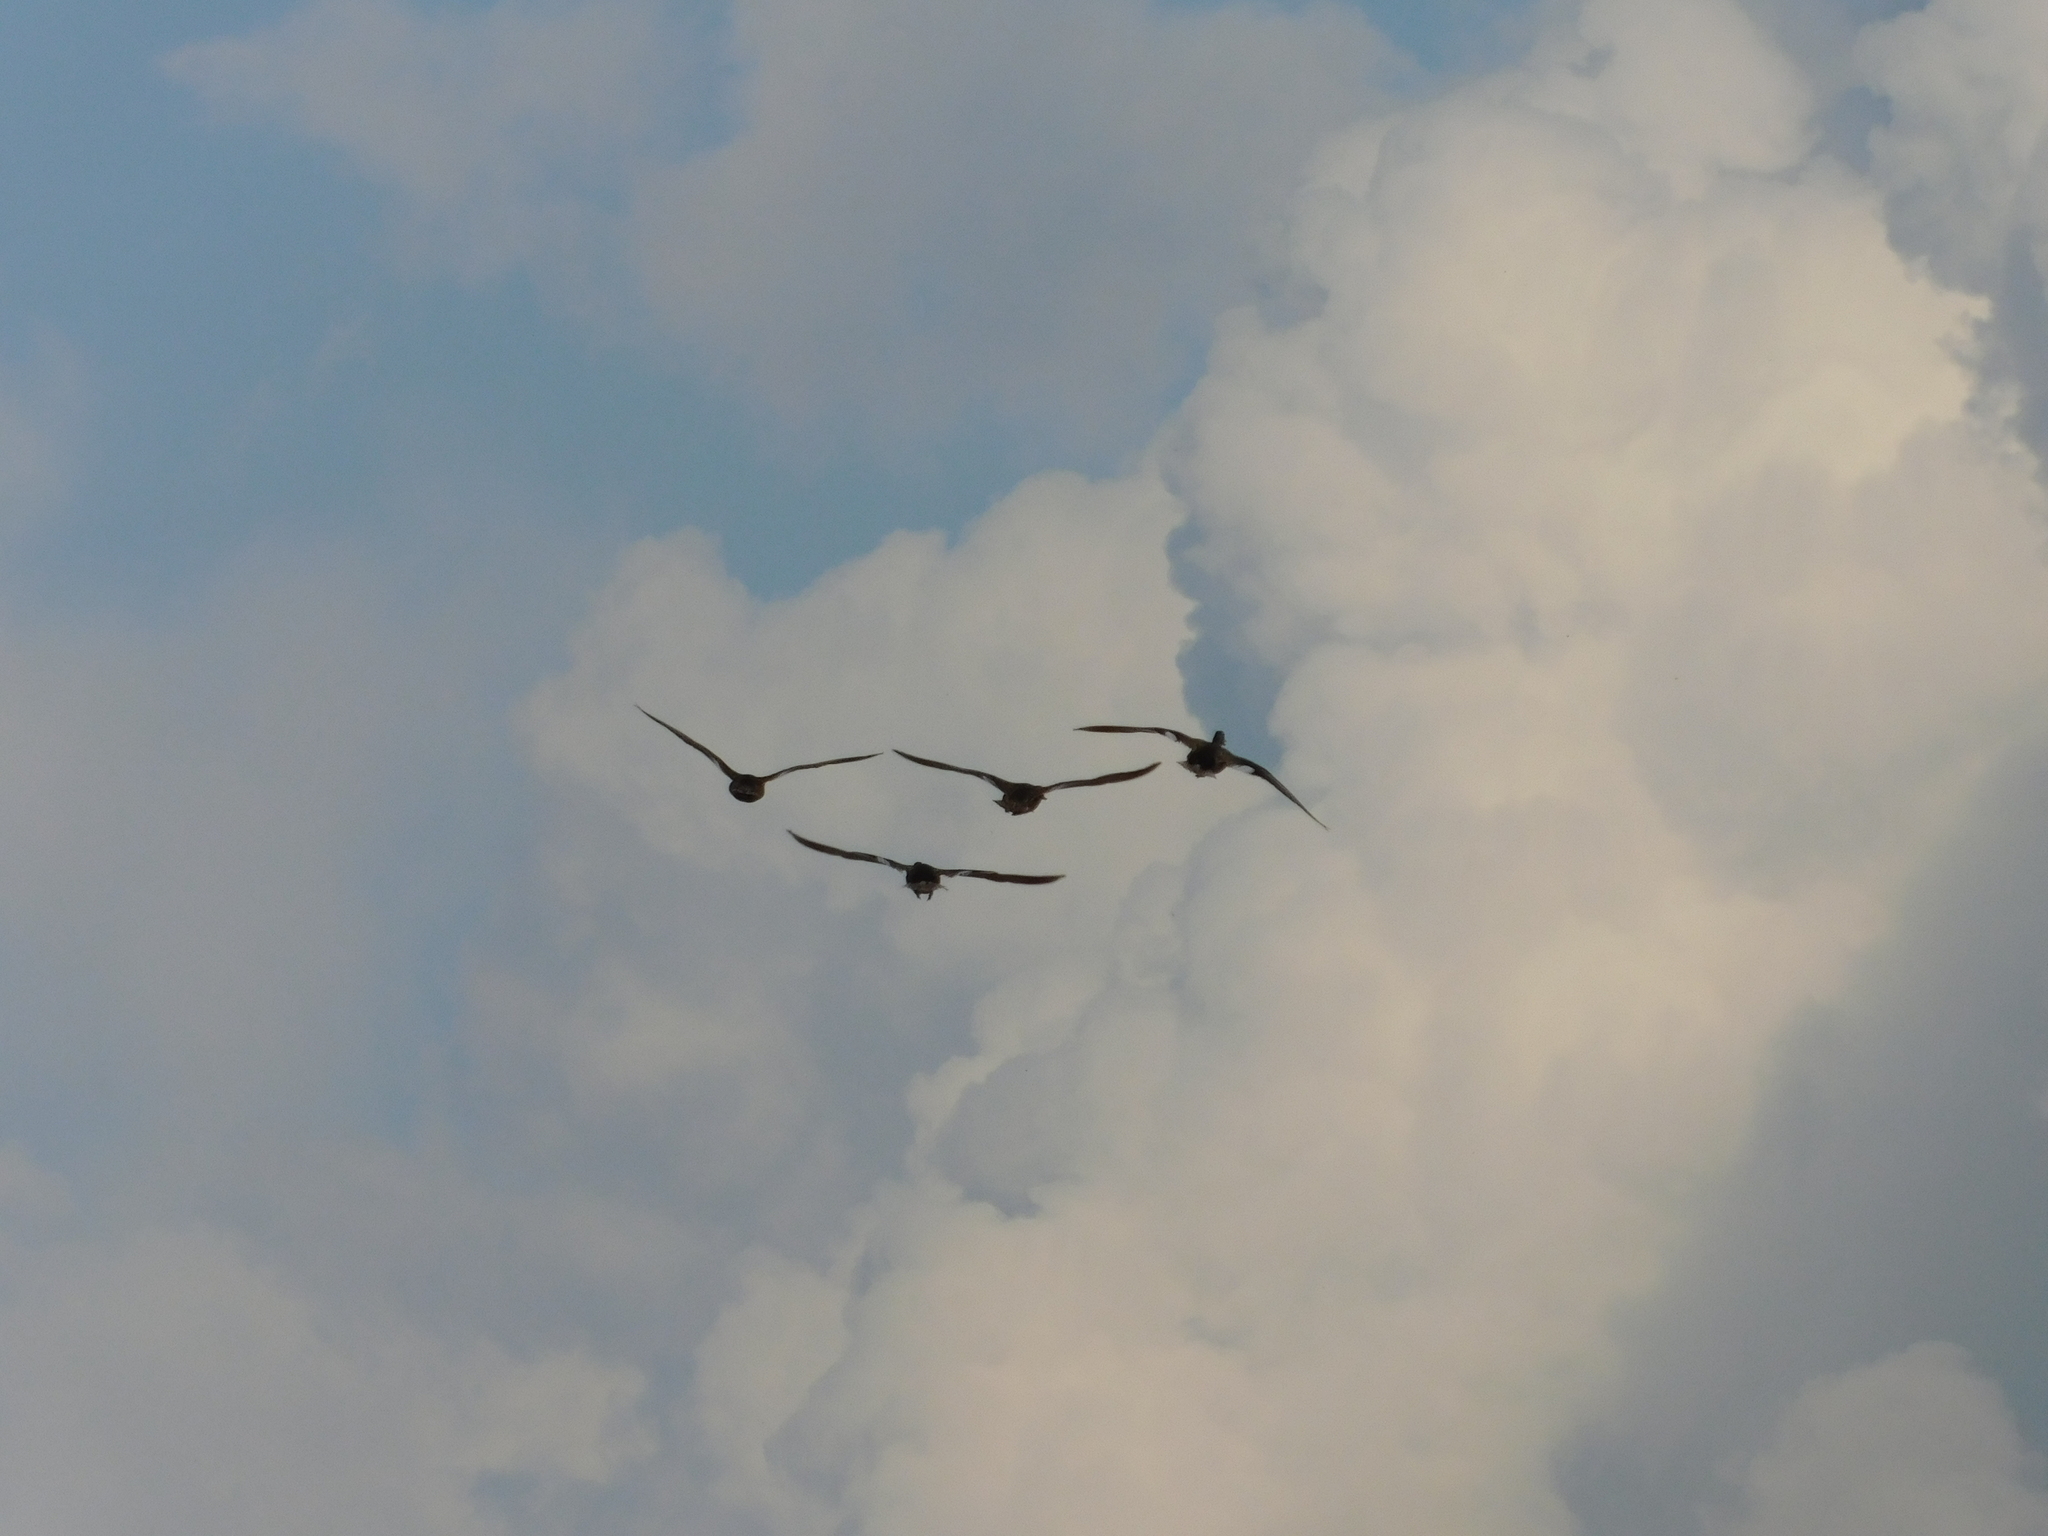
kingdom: Animalia
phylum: Chordata
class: Aves
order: Anseriformes
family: Anatidae
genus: Anas
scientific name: Anas platyrhynchos
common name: Mallard
